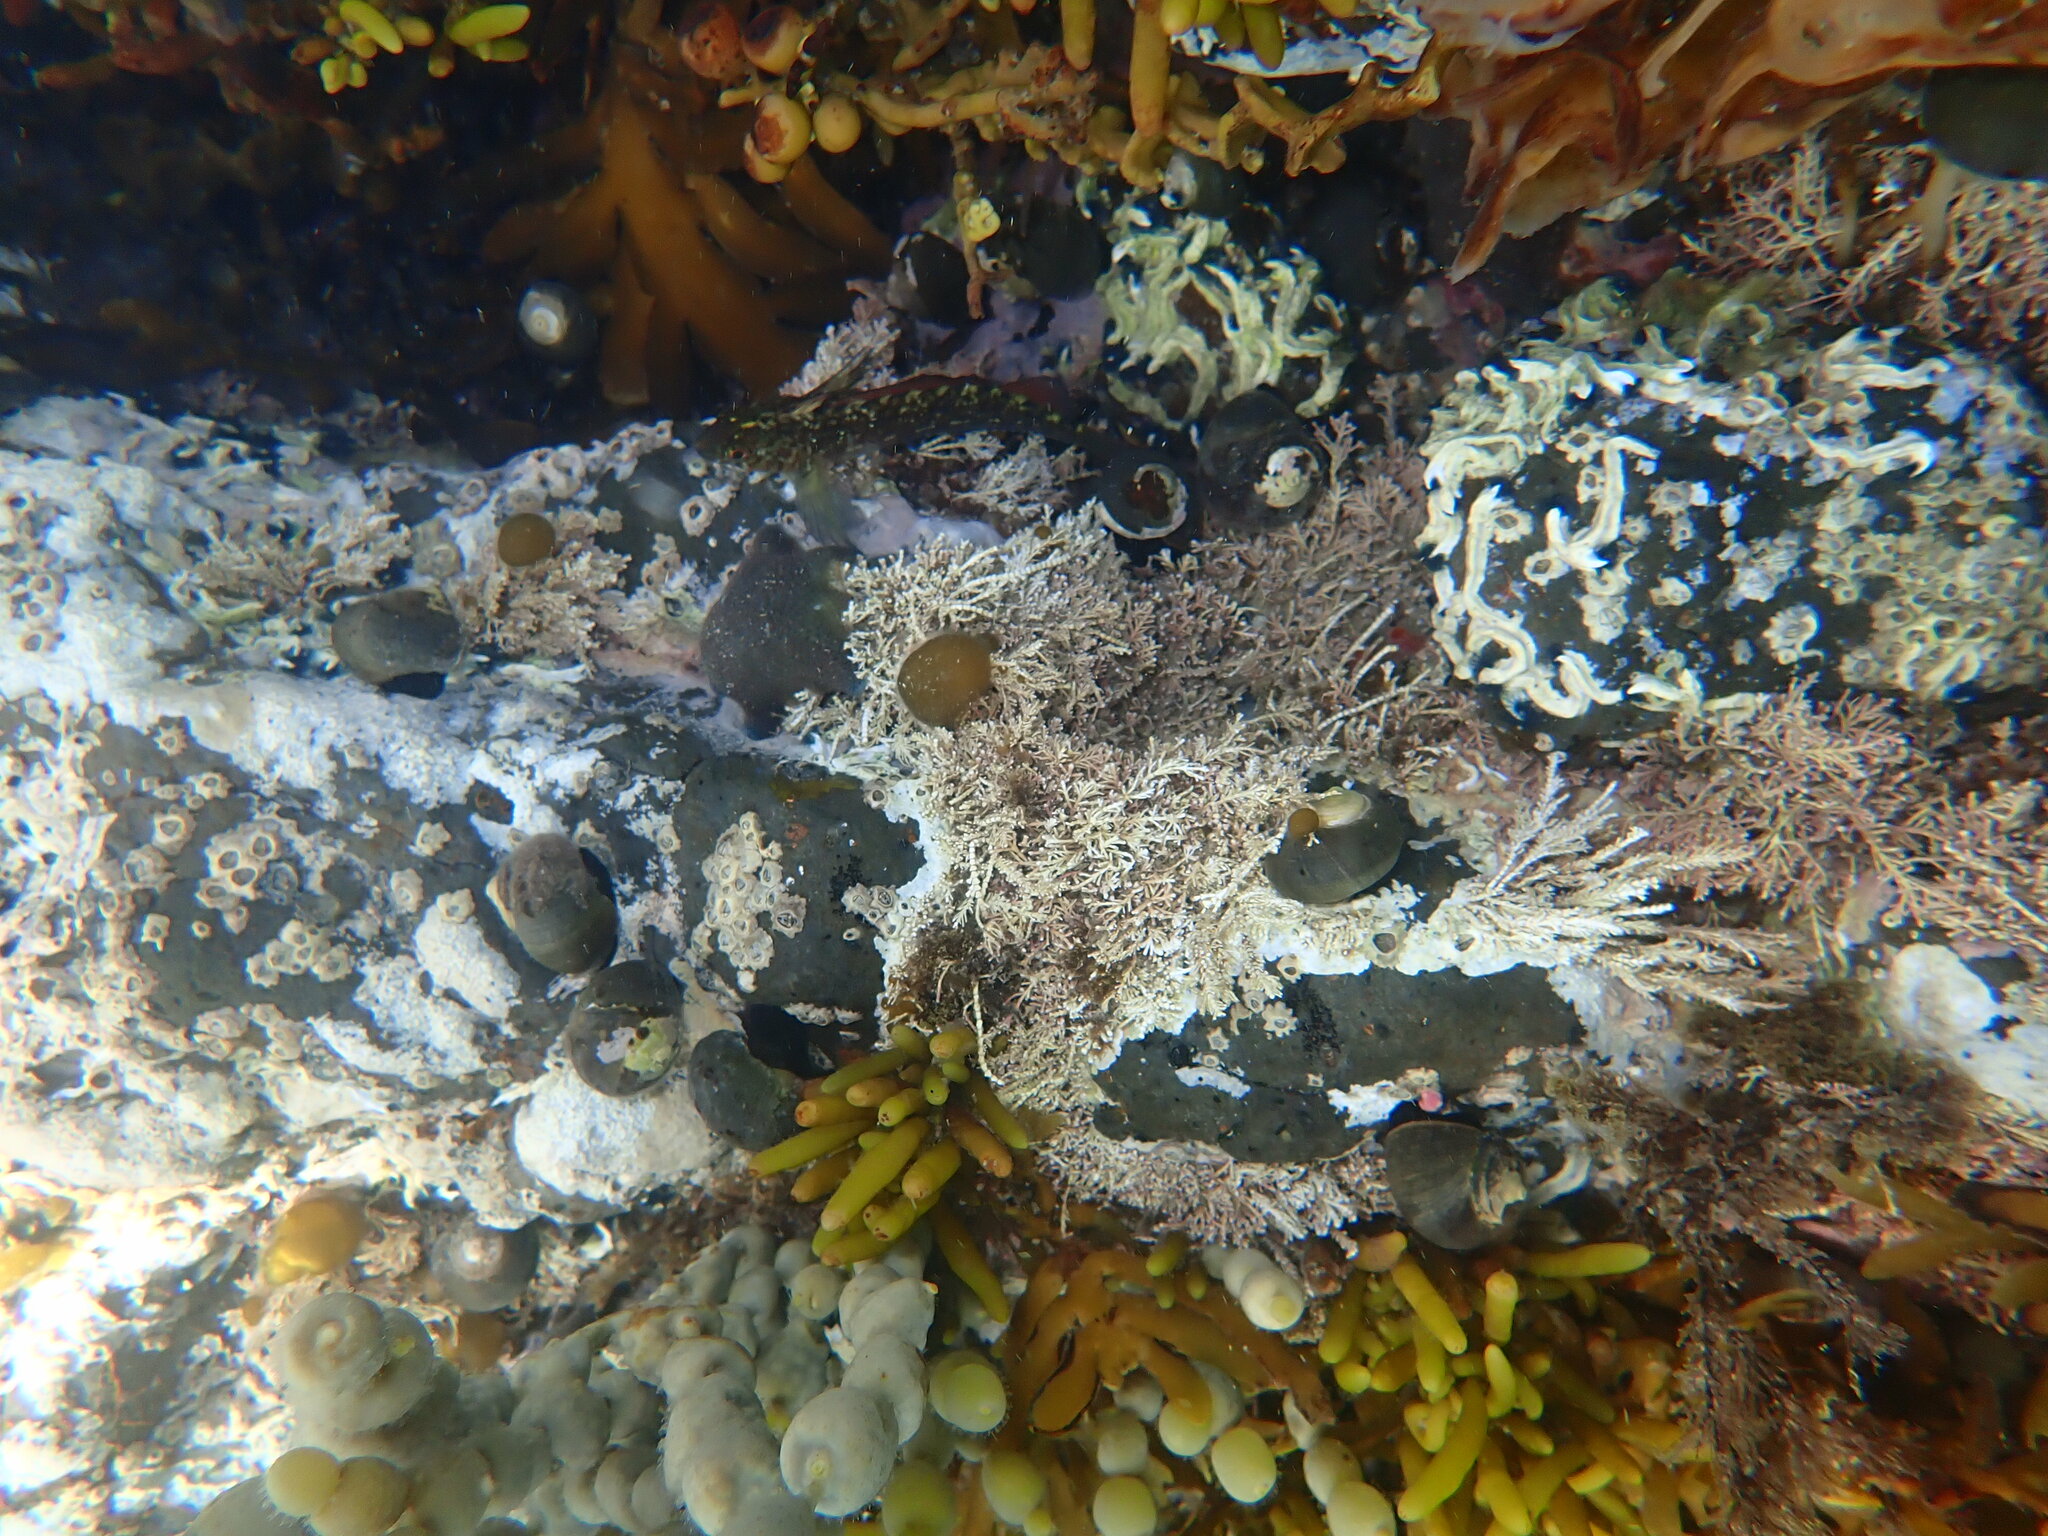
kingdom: Animalia
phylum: Mollusca
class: Gastropoda
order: Trochida
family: Turbinidae
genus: Lunella
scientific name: Lunella smaragda
